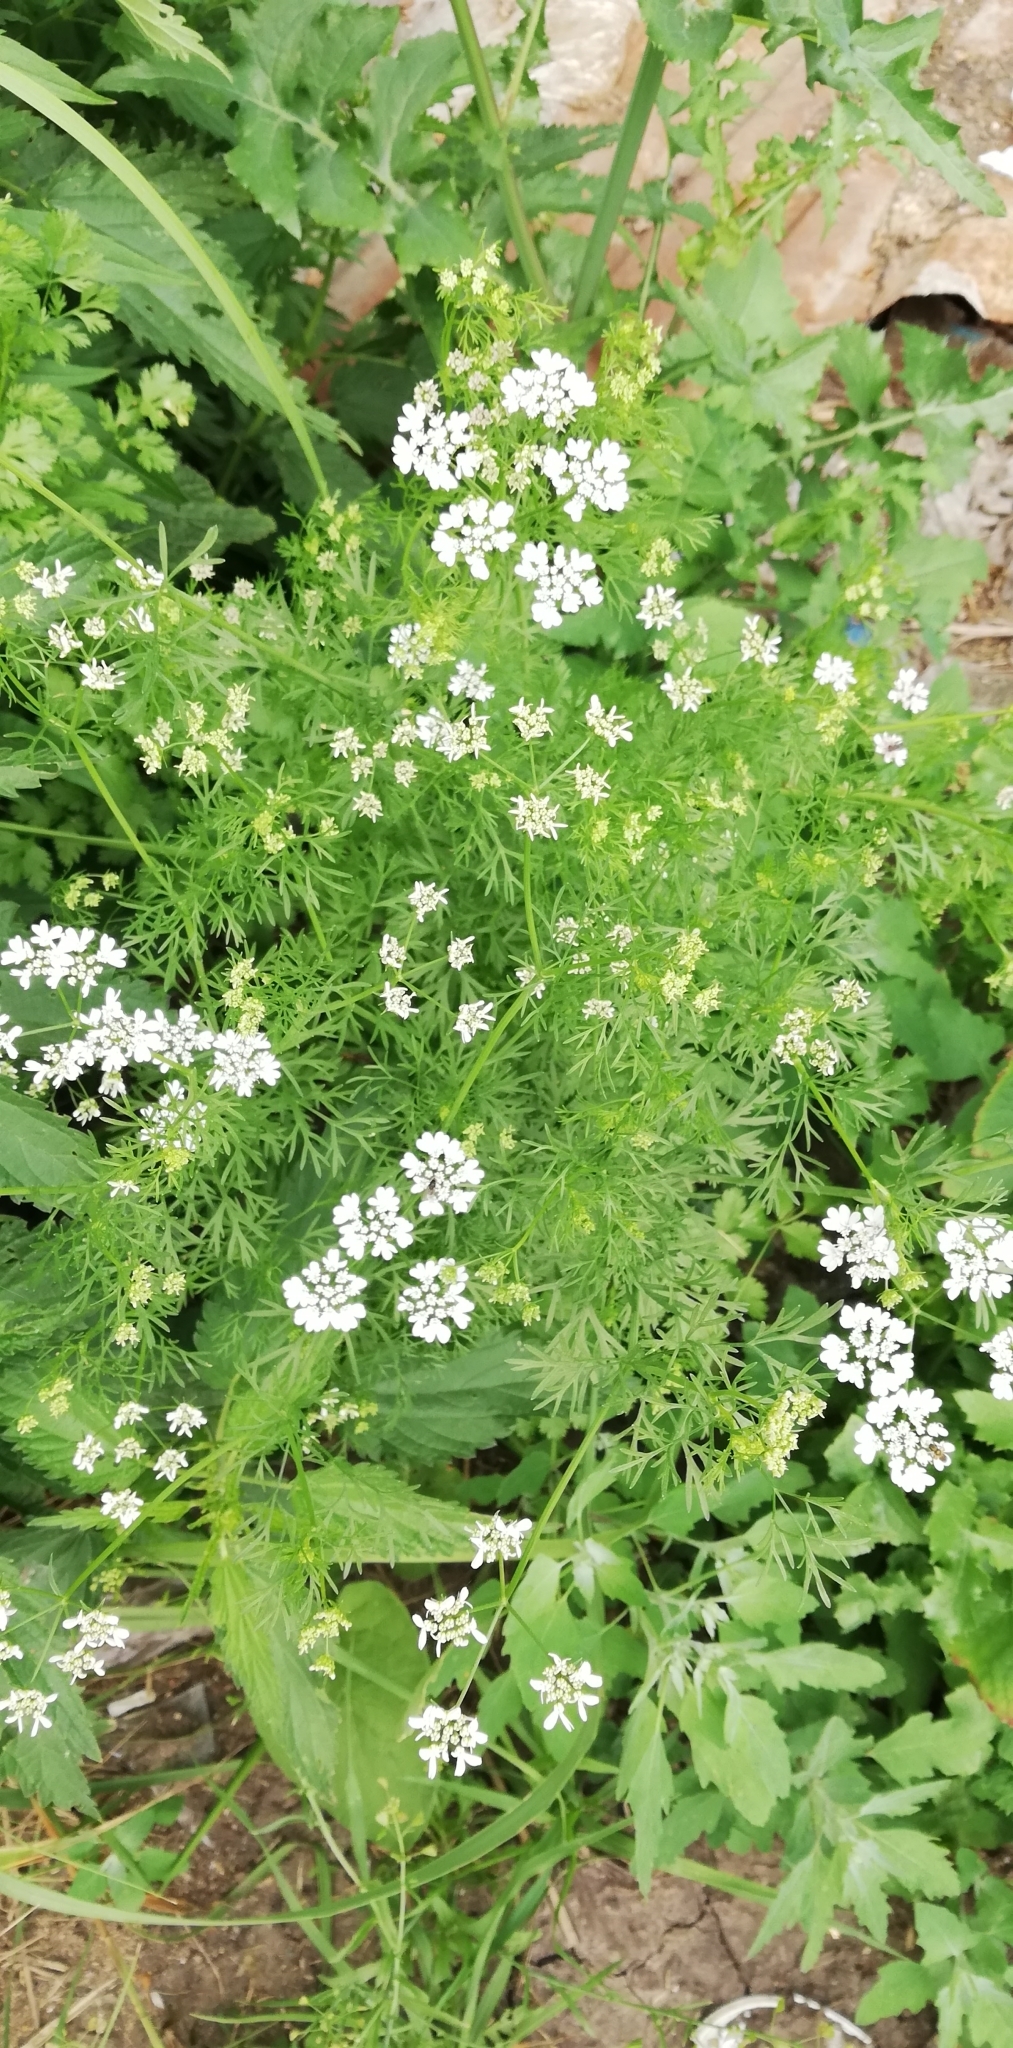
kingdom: Plantae
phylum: Tracheophyta
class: Magnoliopsida
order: Apiales
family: Apiaceae
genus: Coriandrum
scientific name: Coriandrum sativum
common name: Coriander
